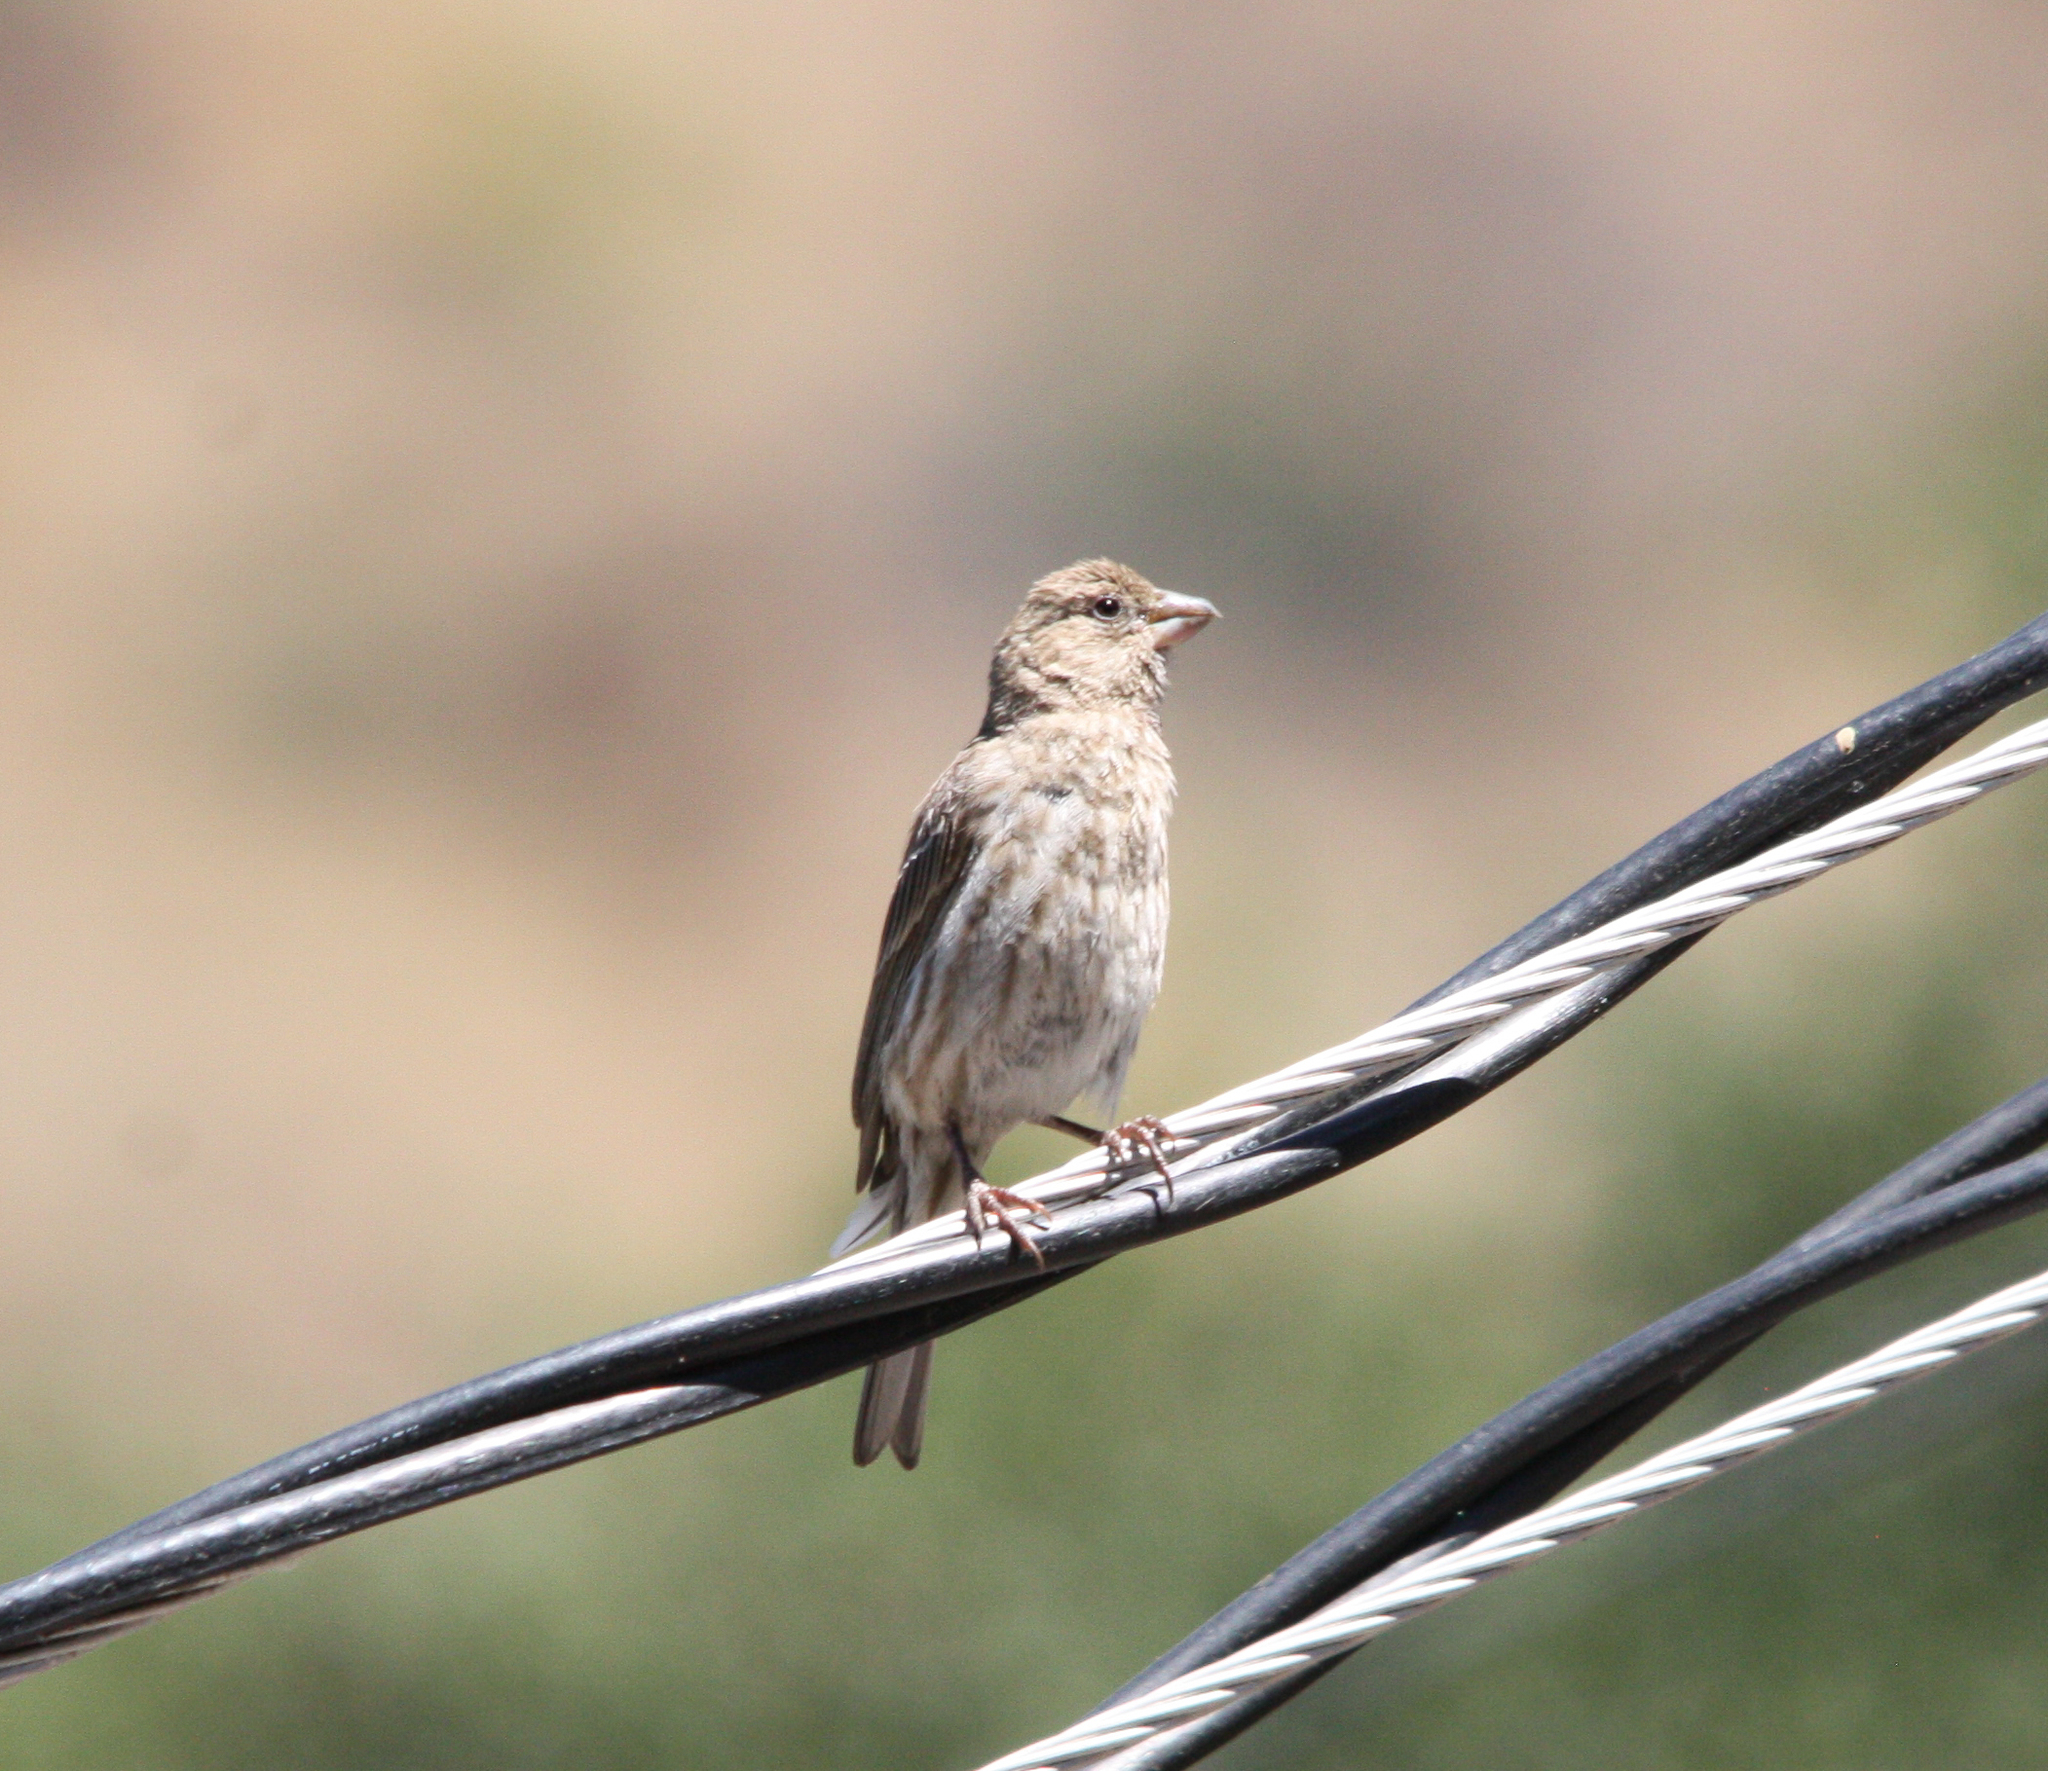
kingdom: Animalia
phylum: Chordata
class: Aves
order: Passeriformes
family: Fringillidae
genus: Haemorhous
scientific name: Haemorhous mexicanus
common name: House finch
